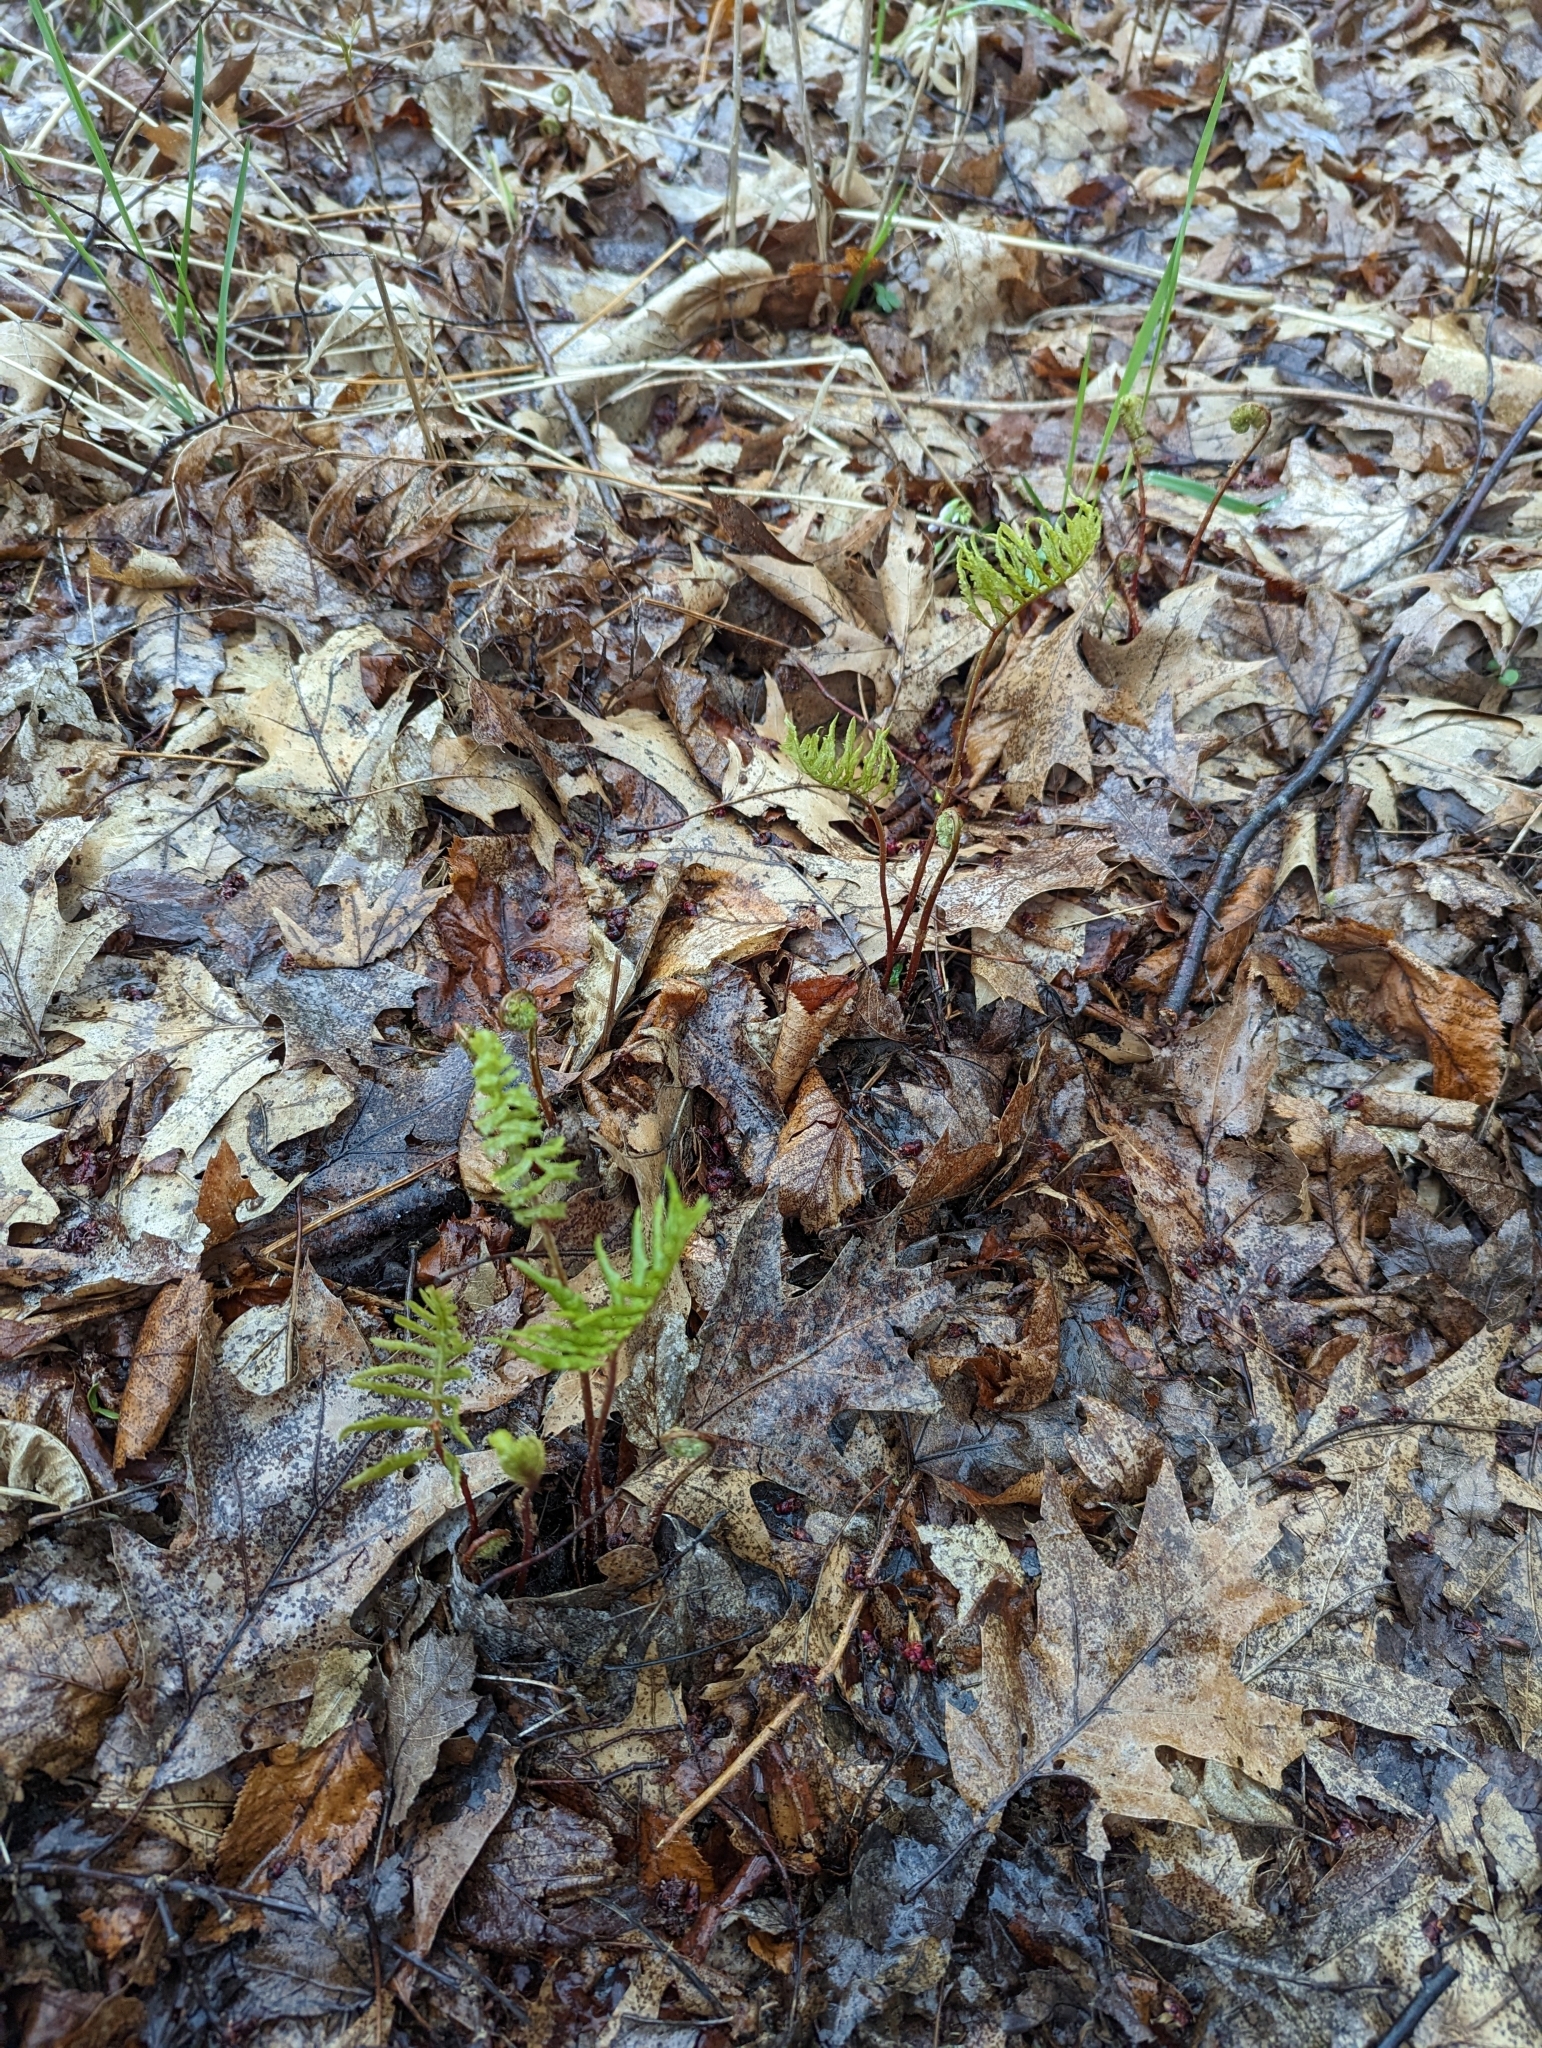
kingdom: Plantae
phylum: Tracheophyta
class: Polypodiopsida
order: Polypodiales
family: Onocleaceae
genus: Onoclea
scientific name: Onoclea sensibilis
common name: Sensitive fern
